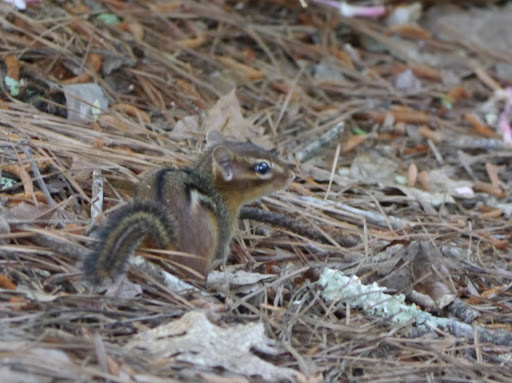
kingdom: Animalia
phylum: Chordata
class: Mammalia
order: Rodentia
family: Sciuridae
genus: Tamias
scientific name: Tamias striatus
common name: Eastern chipmunk
